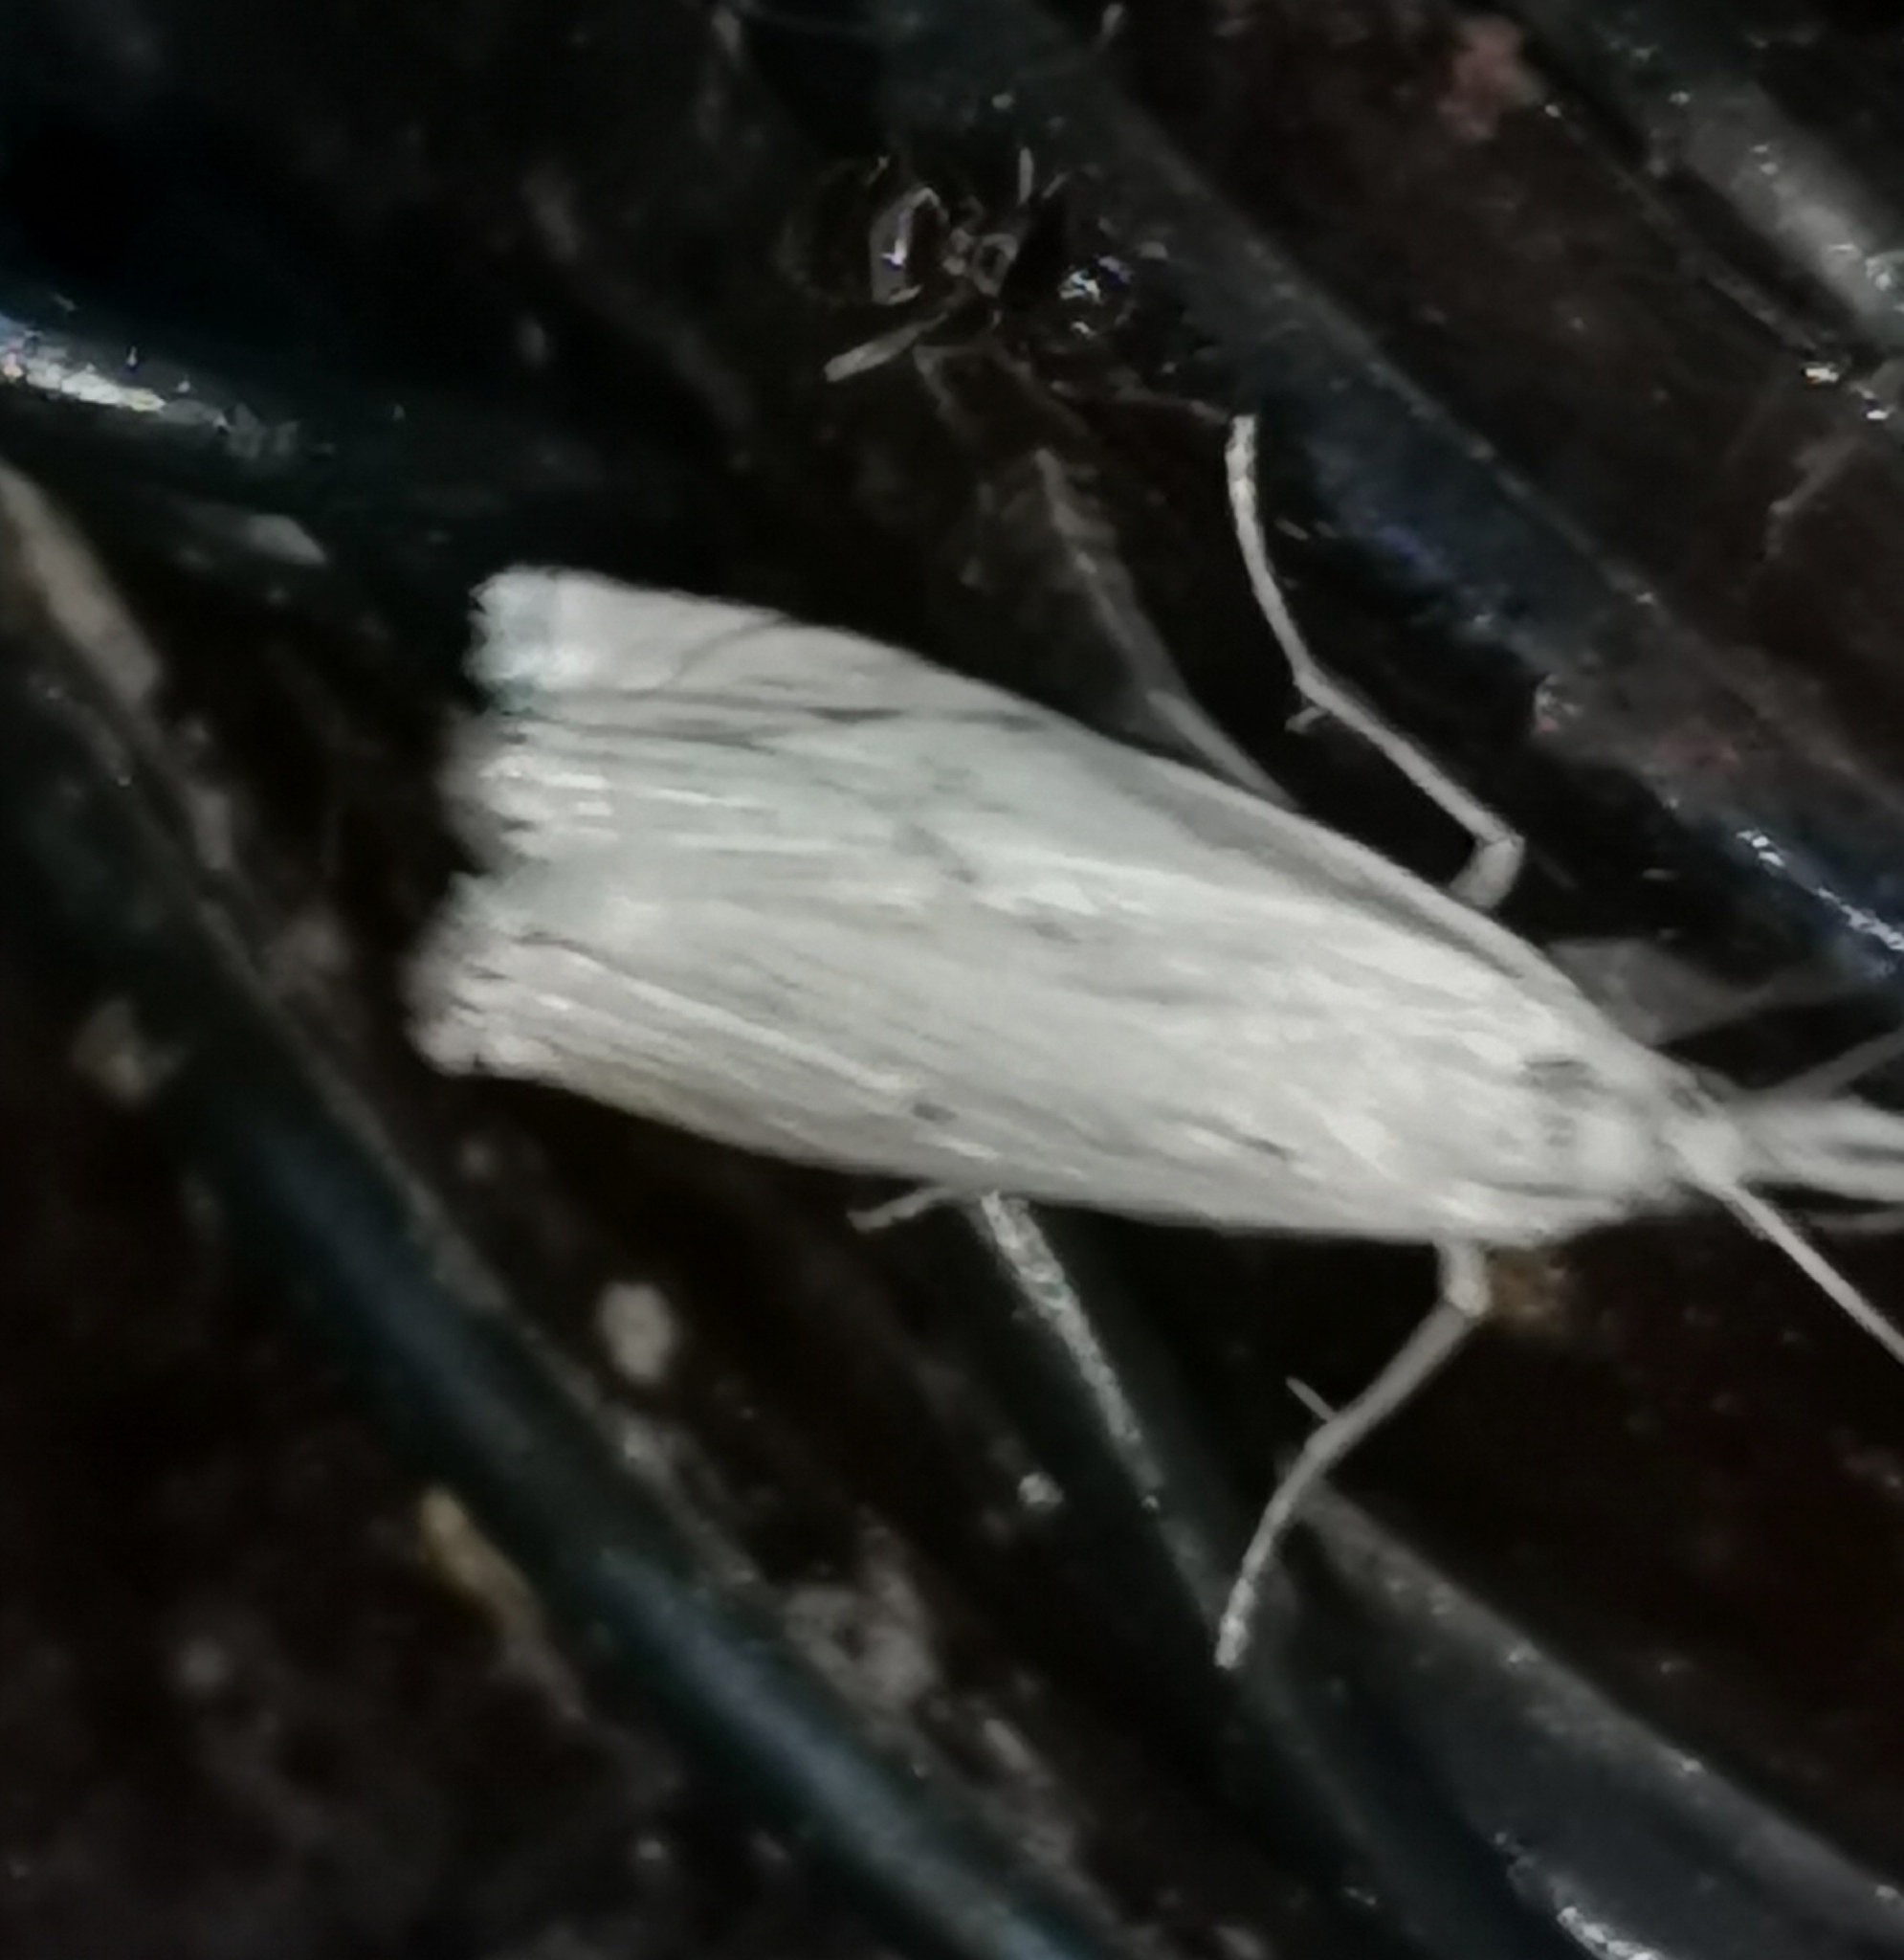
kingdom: Animalia
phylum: Arthropoda
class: Insecta
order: Lepidoptera
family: Crambidae
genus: Crambus
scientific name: Crambus nemorella
